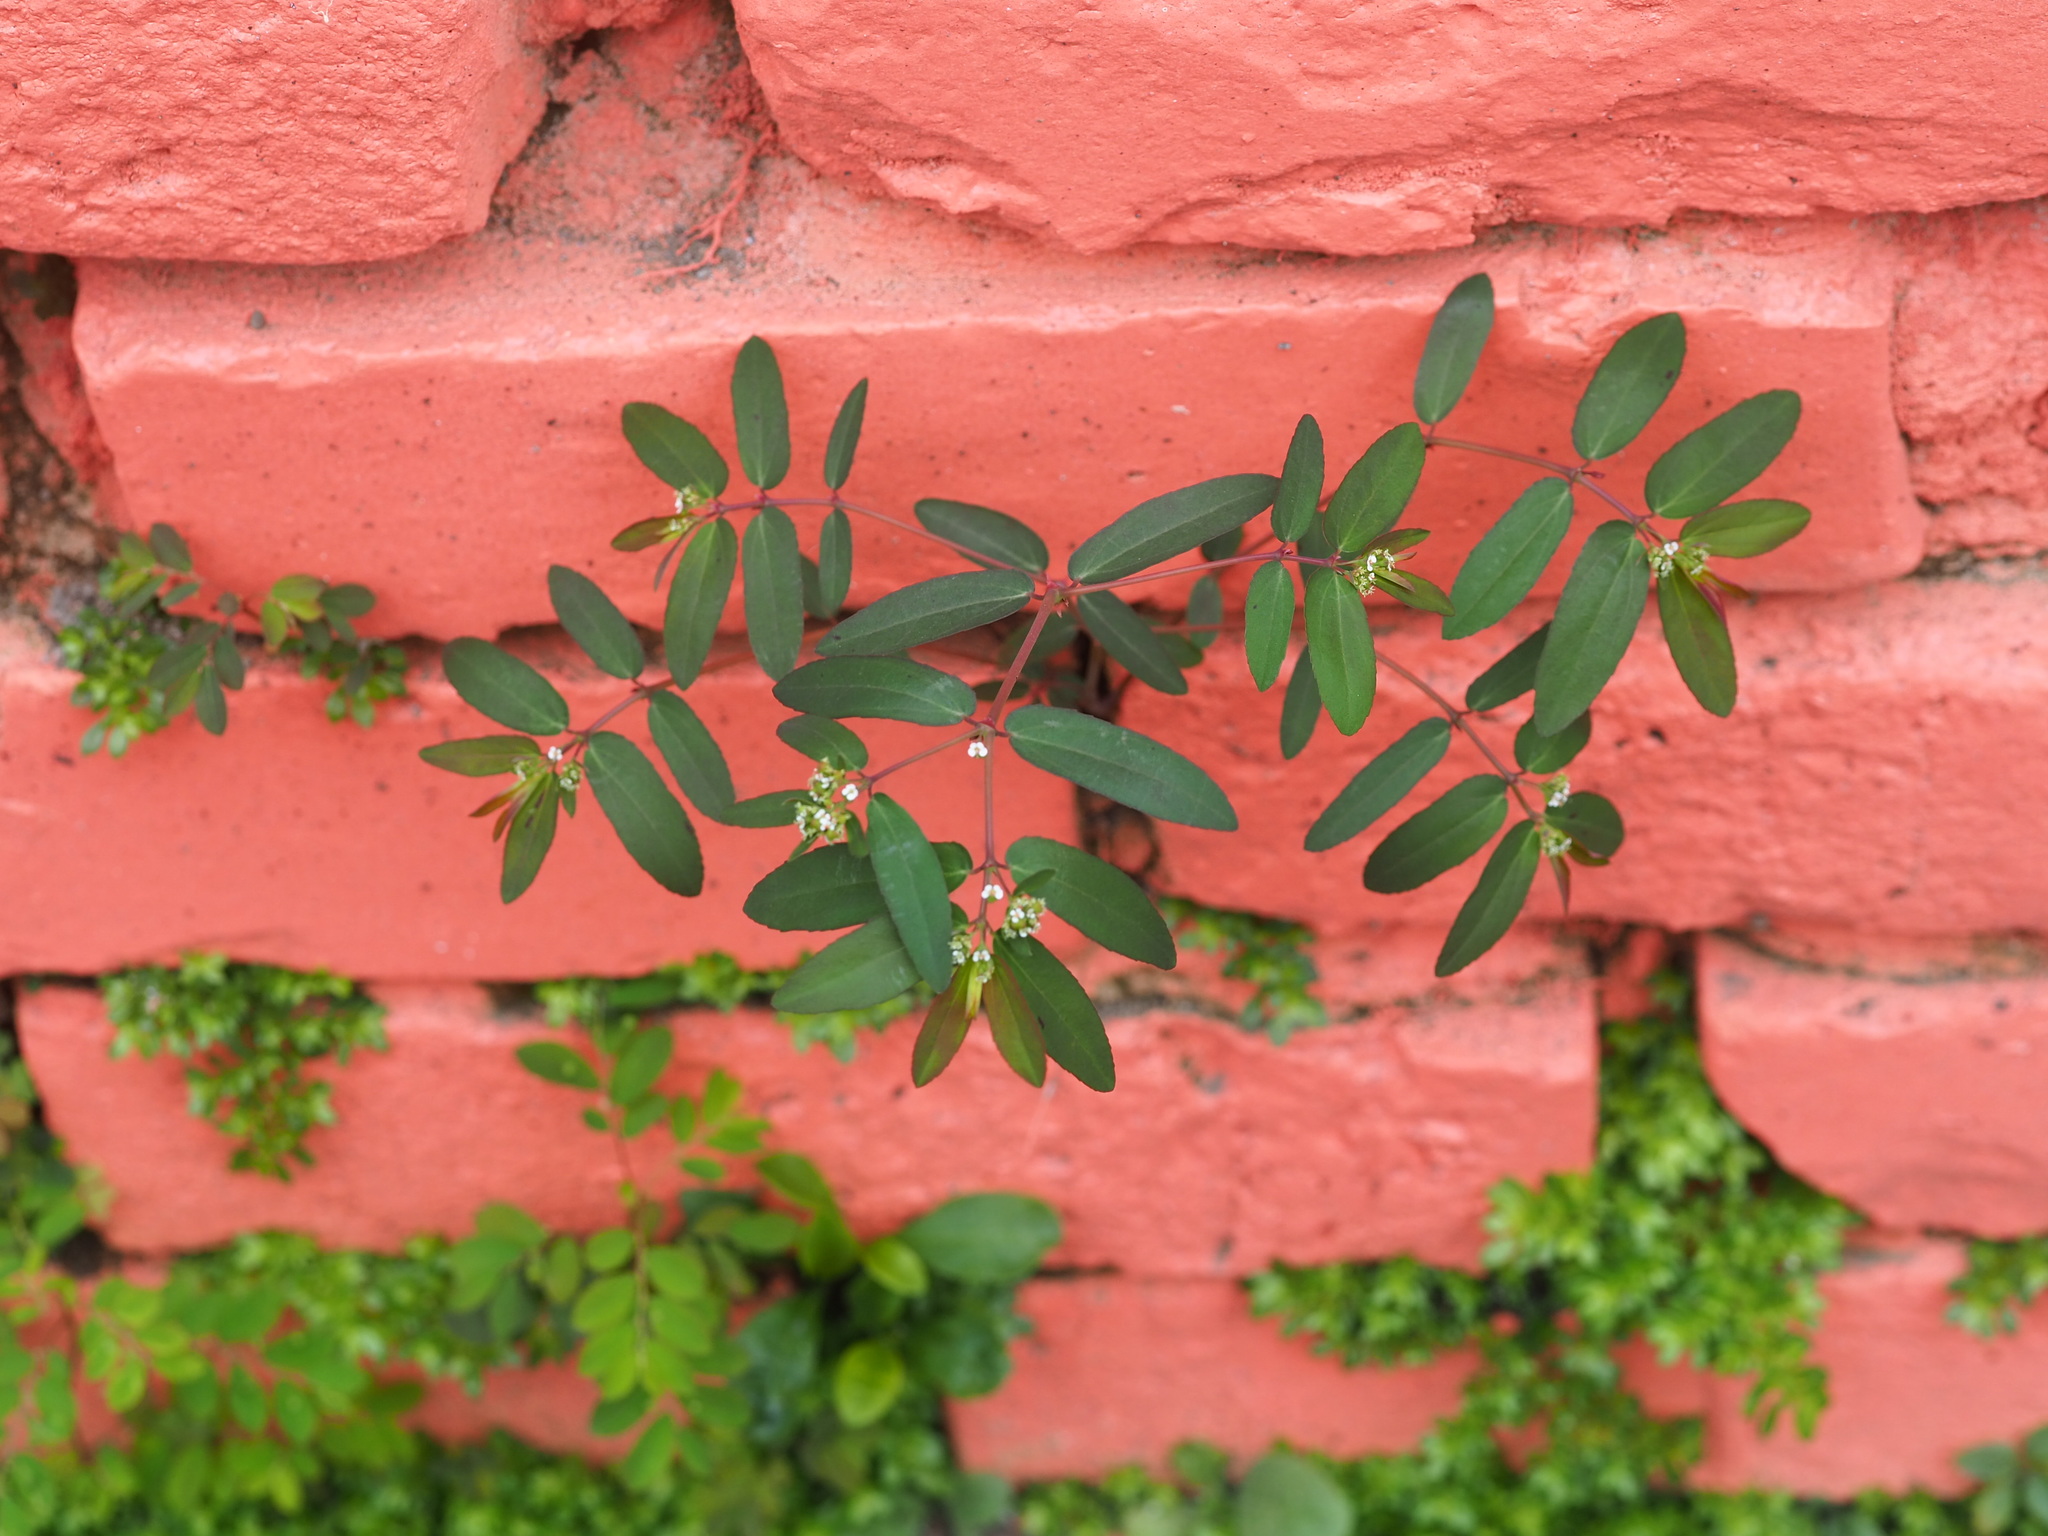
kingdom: Plantae
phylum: Tracheophyta
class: Magnoliopsida
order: Malpighiales
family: Euphorbiaceae
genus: Euphorbia
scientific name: Euphorbia hypericifolia
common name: Graceful sandmat
